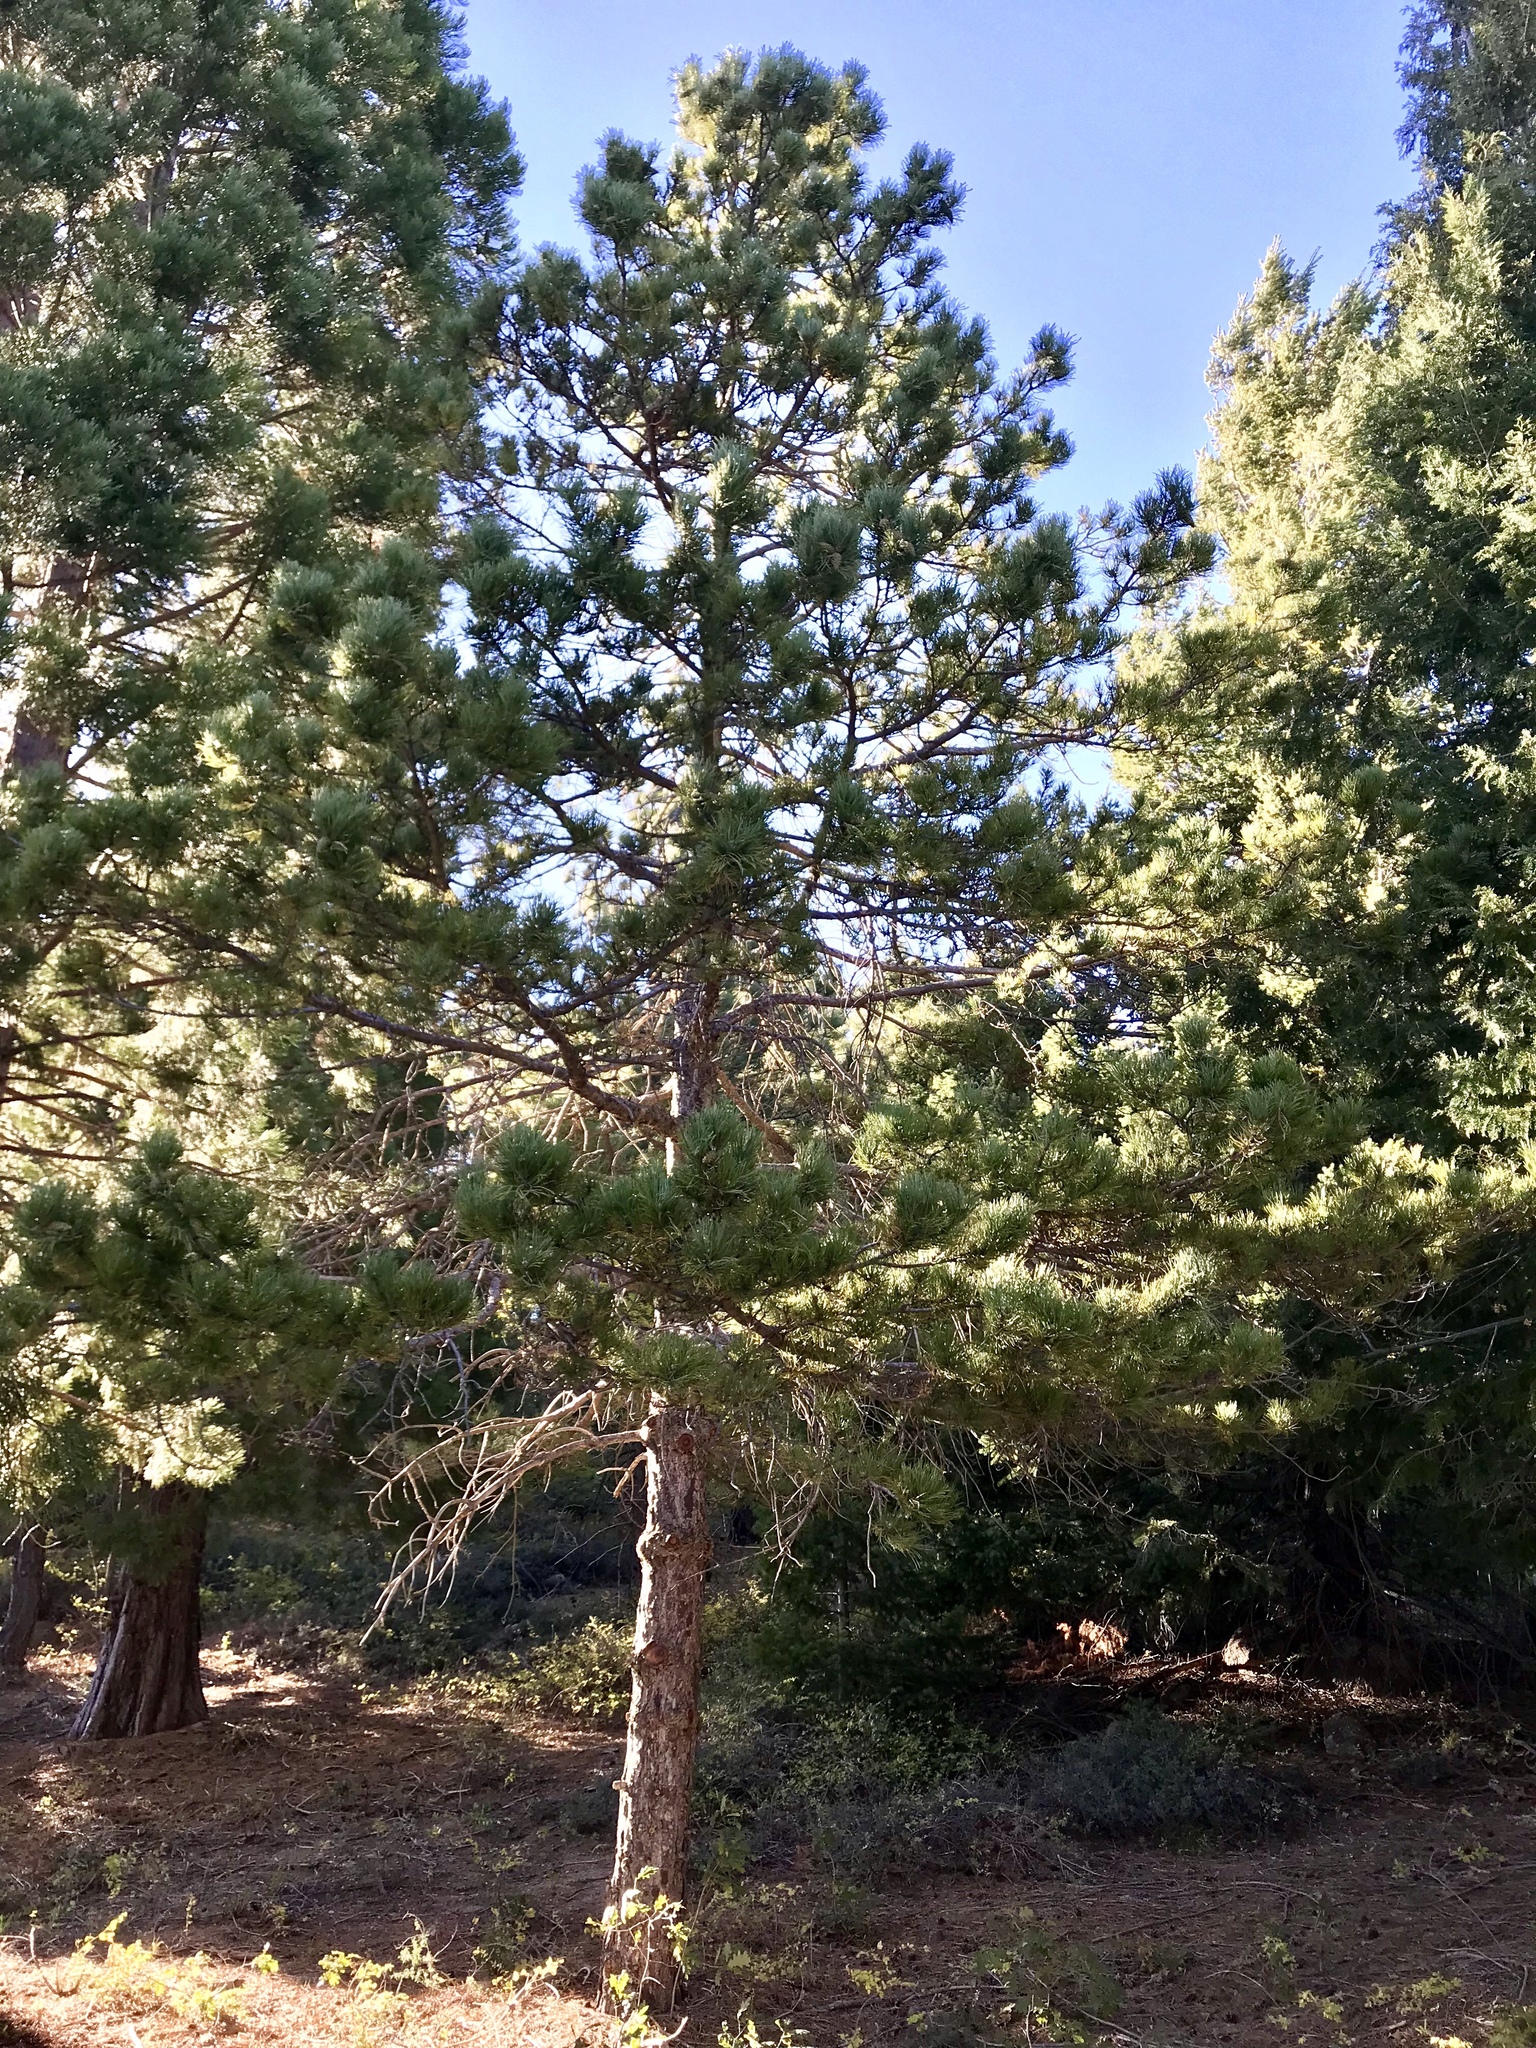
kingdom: Plantae
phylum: Tracheophyta
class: Pinopsida
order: Pinales
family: Pinaceae
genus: Pinus
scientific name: Pinus ponderosa
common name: Western yellow-pine
